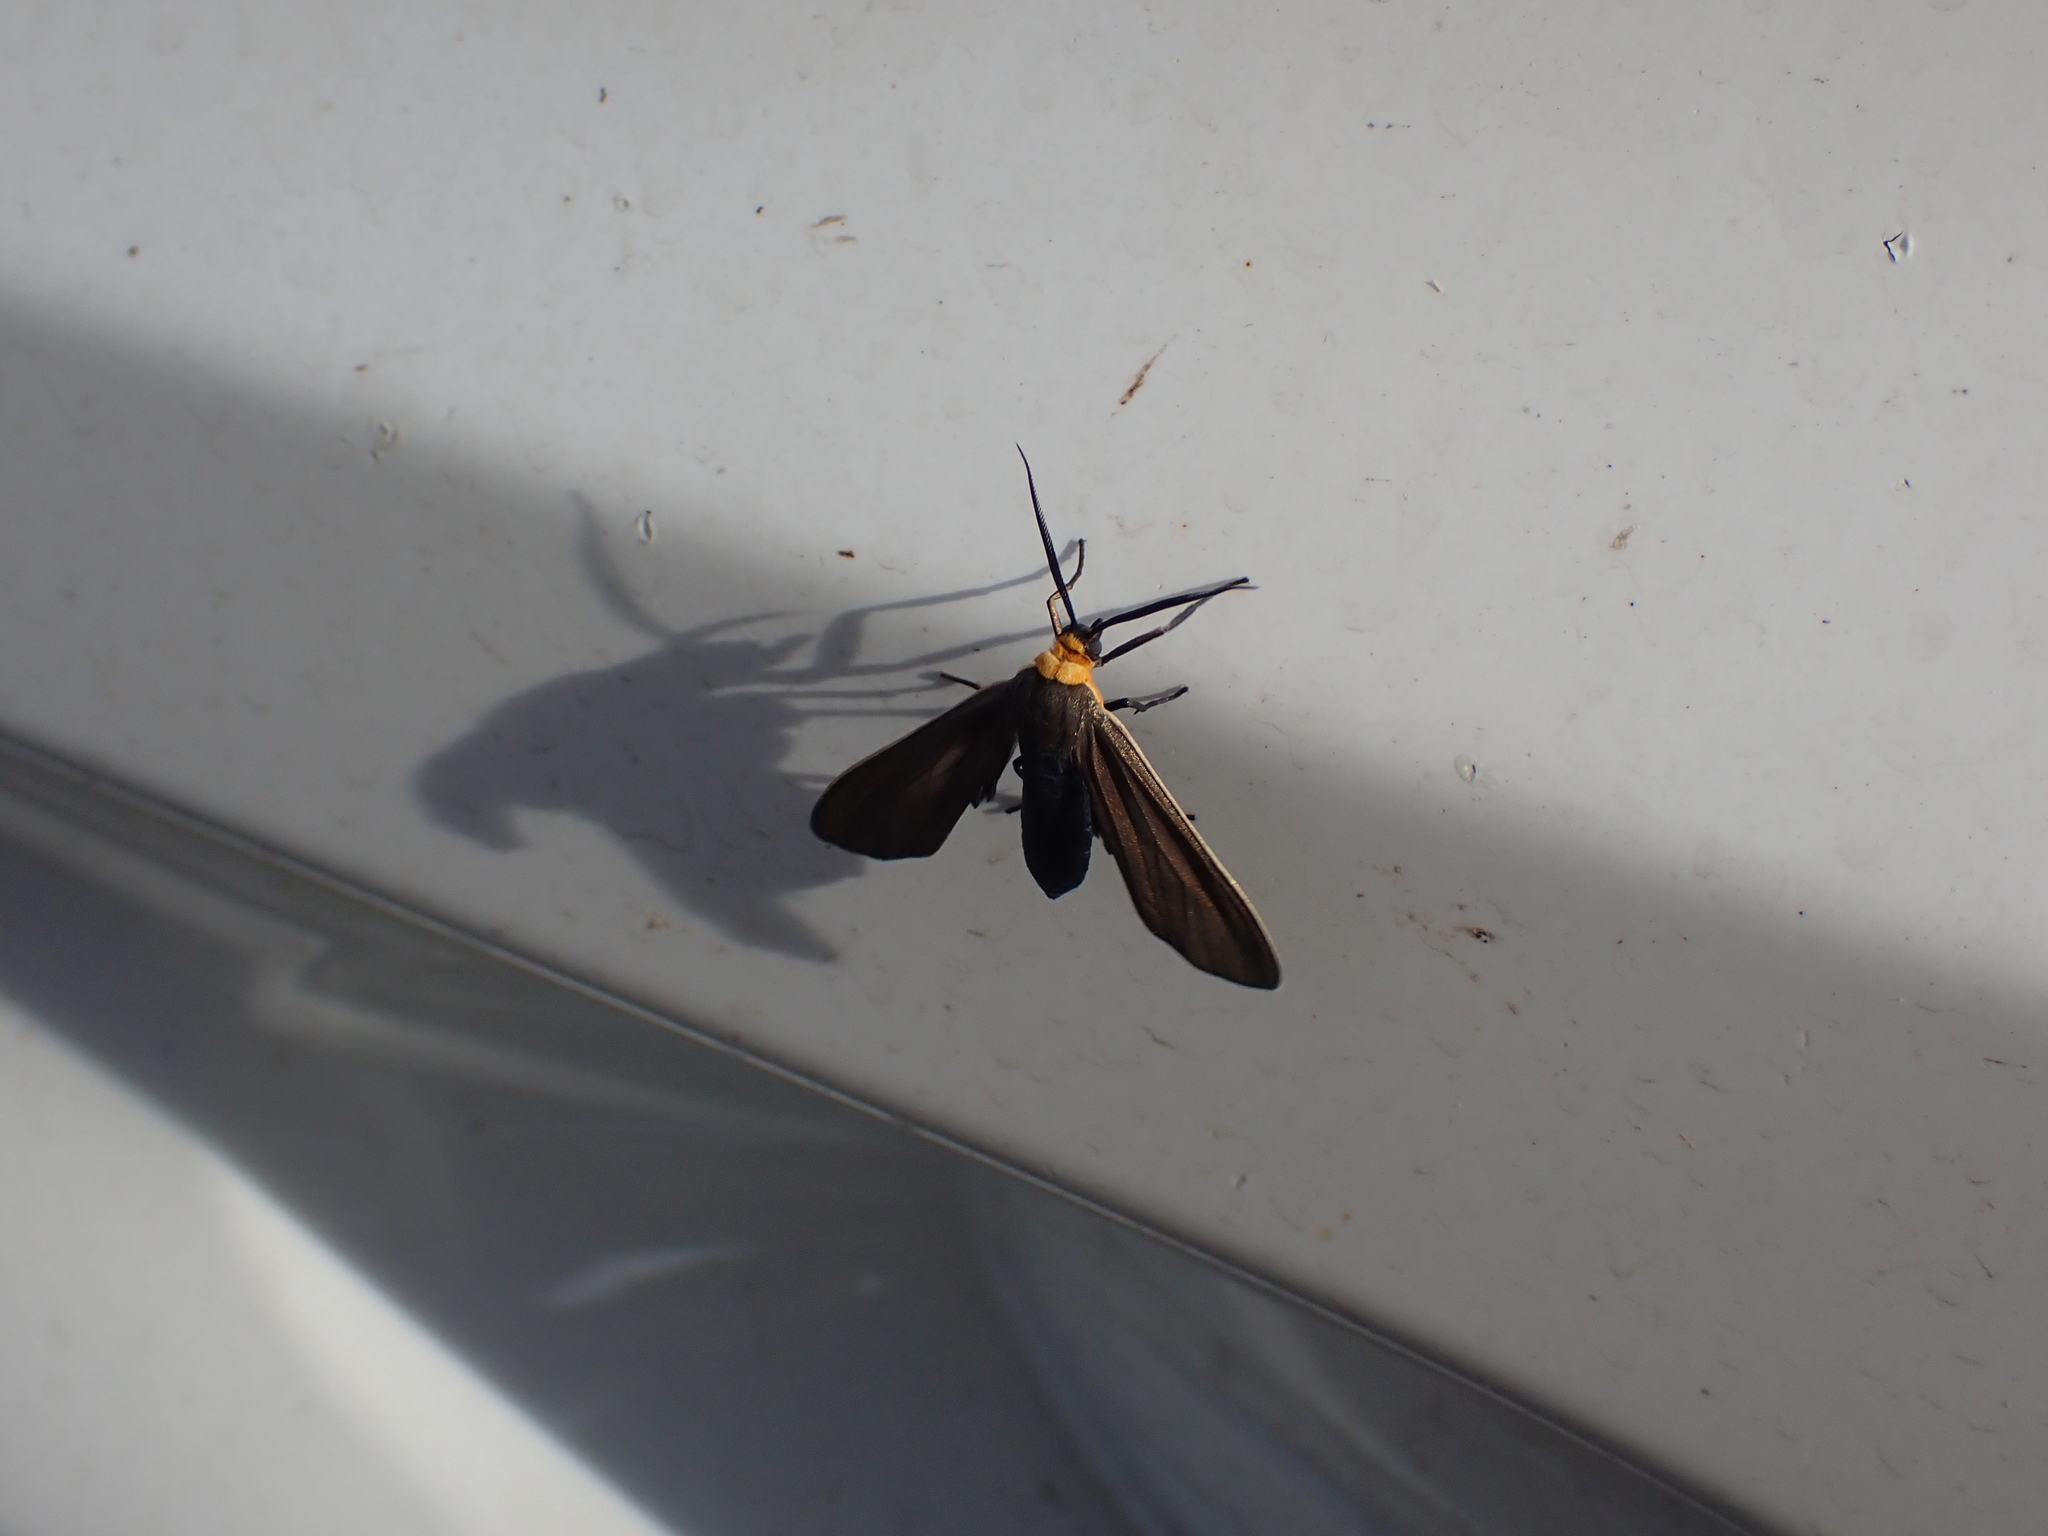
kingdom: Animalia
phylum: Arthropoda
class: Insecta
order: Lepidoptera
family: Erebidae
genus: Cisseps
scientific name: Cisseps fulvicollis
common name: Yellow-collared scape moth
